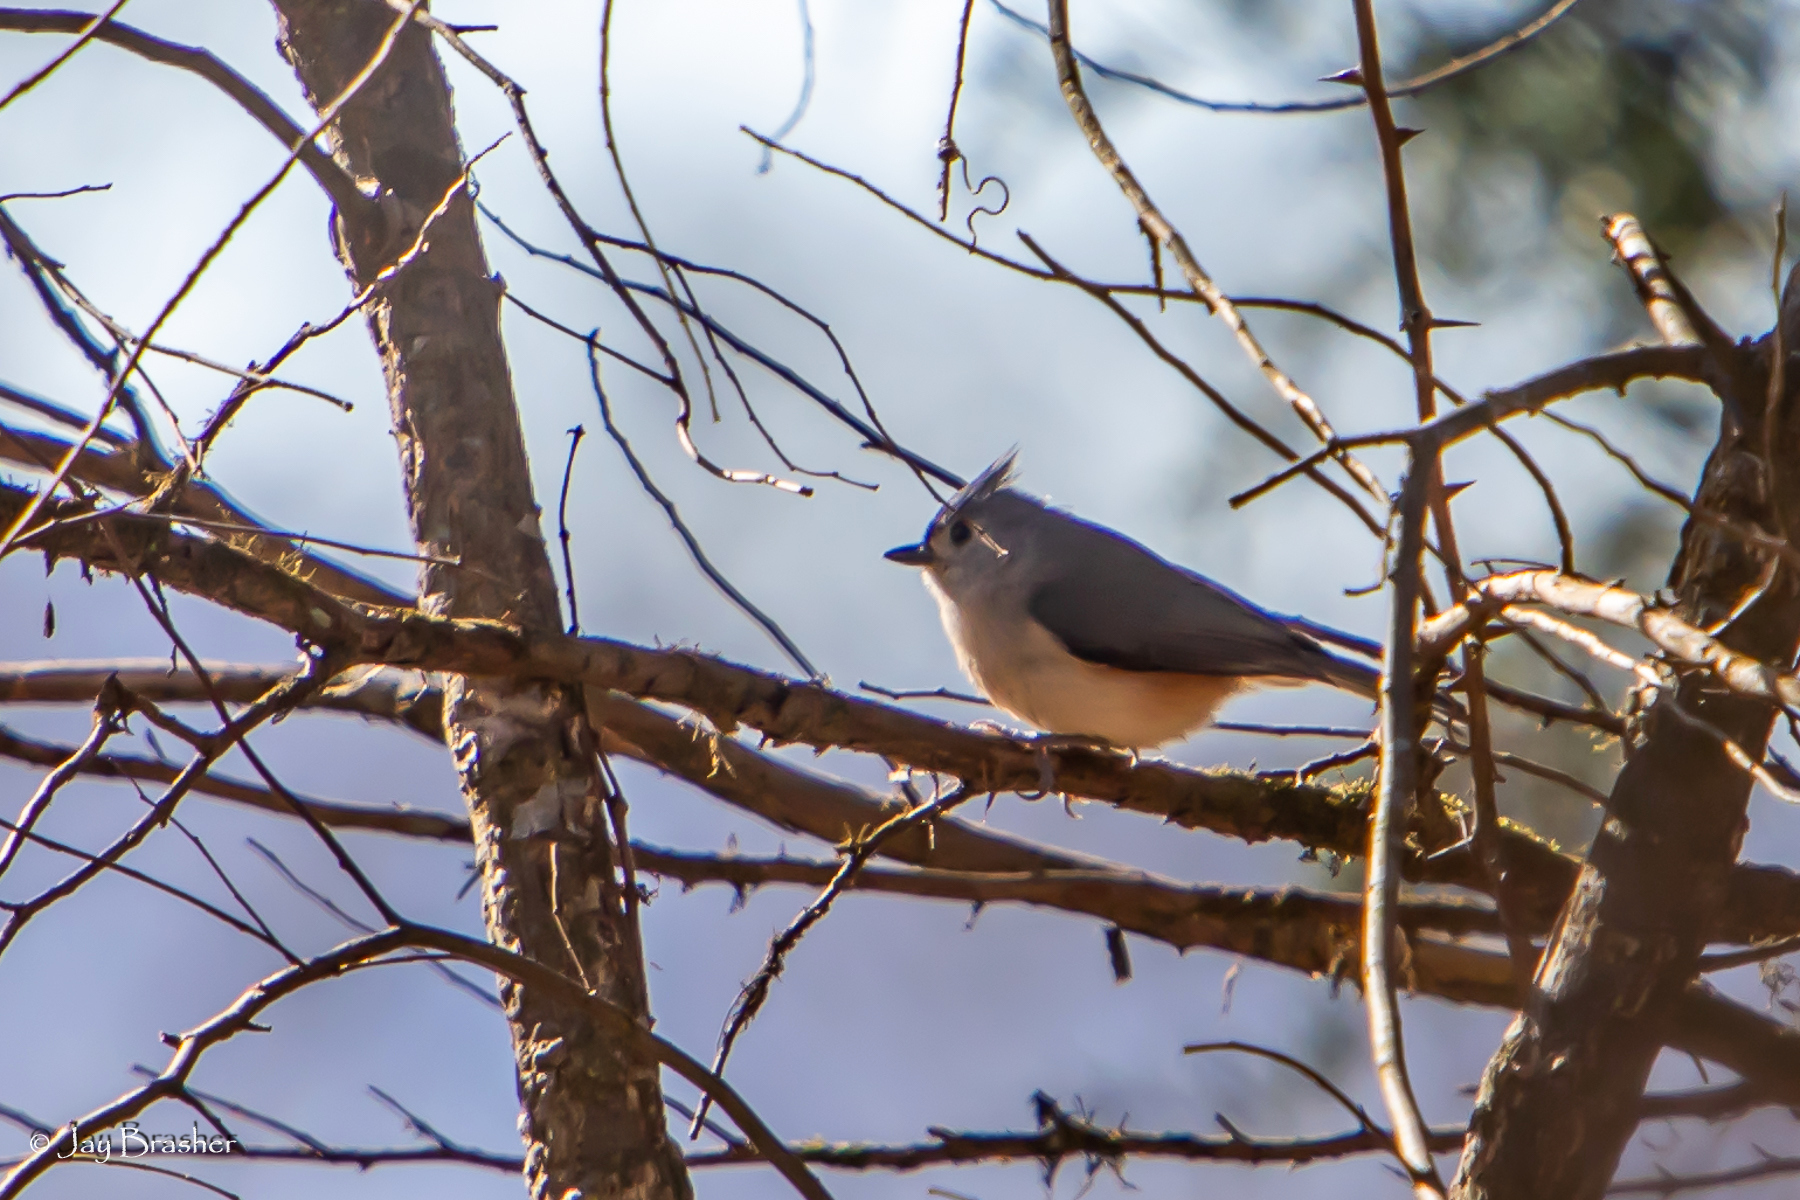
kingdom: Animalia
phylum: Chordata
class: Aves
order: Passeriformes
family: Paridae
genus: Baeolophus
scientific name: Baeolophus bicolor
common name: Tufted titmouse
